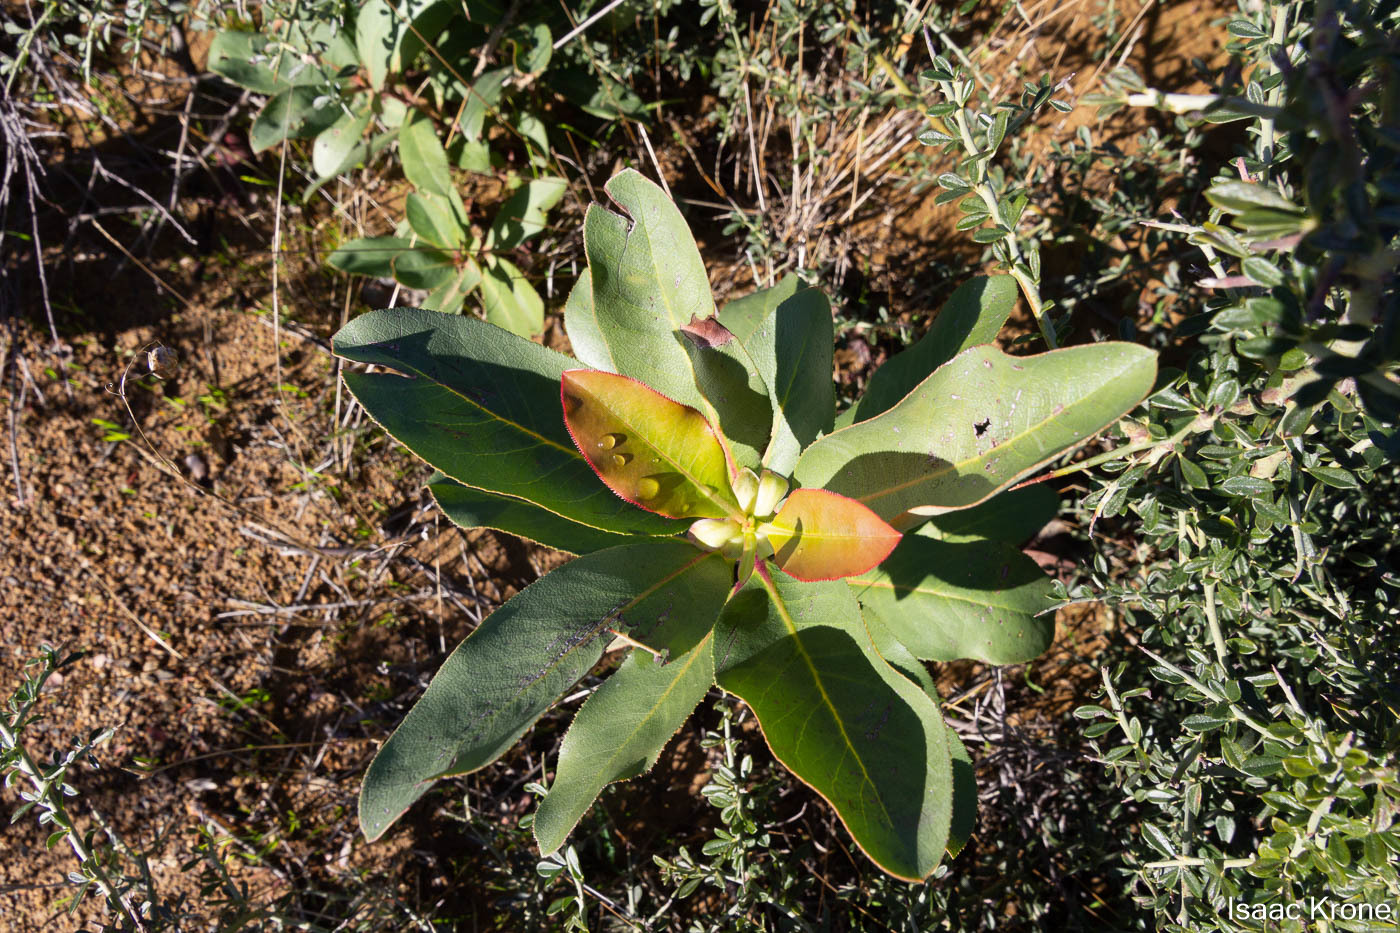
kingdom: Plantae
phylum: Tracheophyta
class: Magnoliopsida
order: Ericales
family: Ericaceae
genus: Arbutus
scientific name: Arbutus menziesii
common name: Pacific madrone
